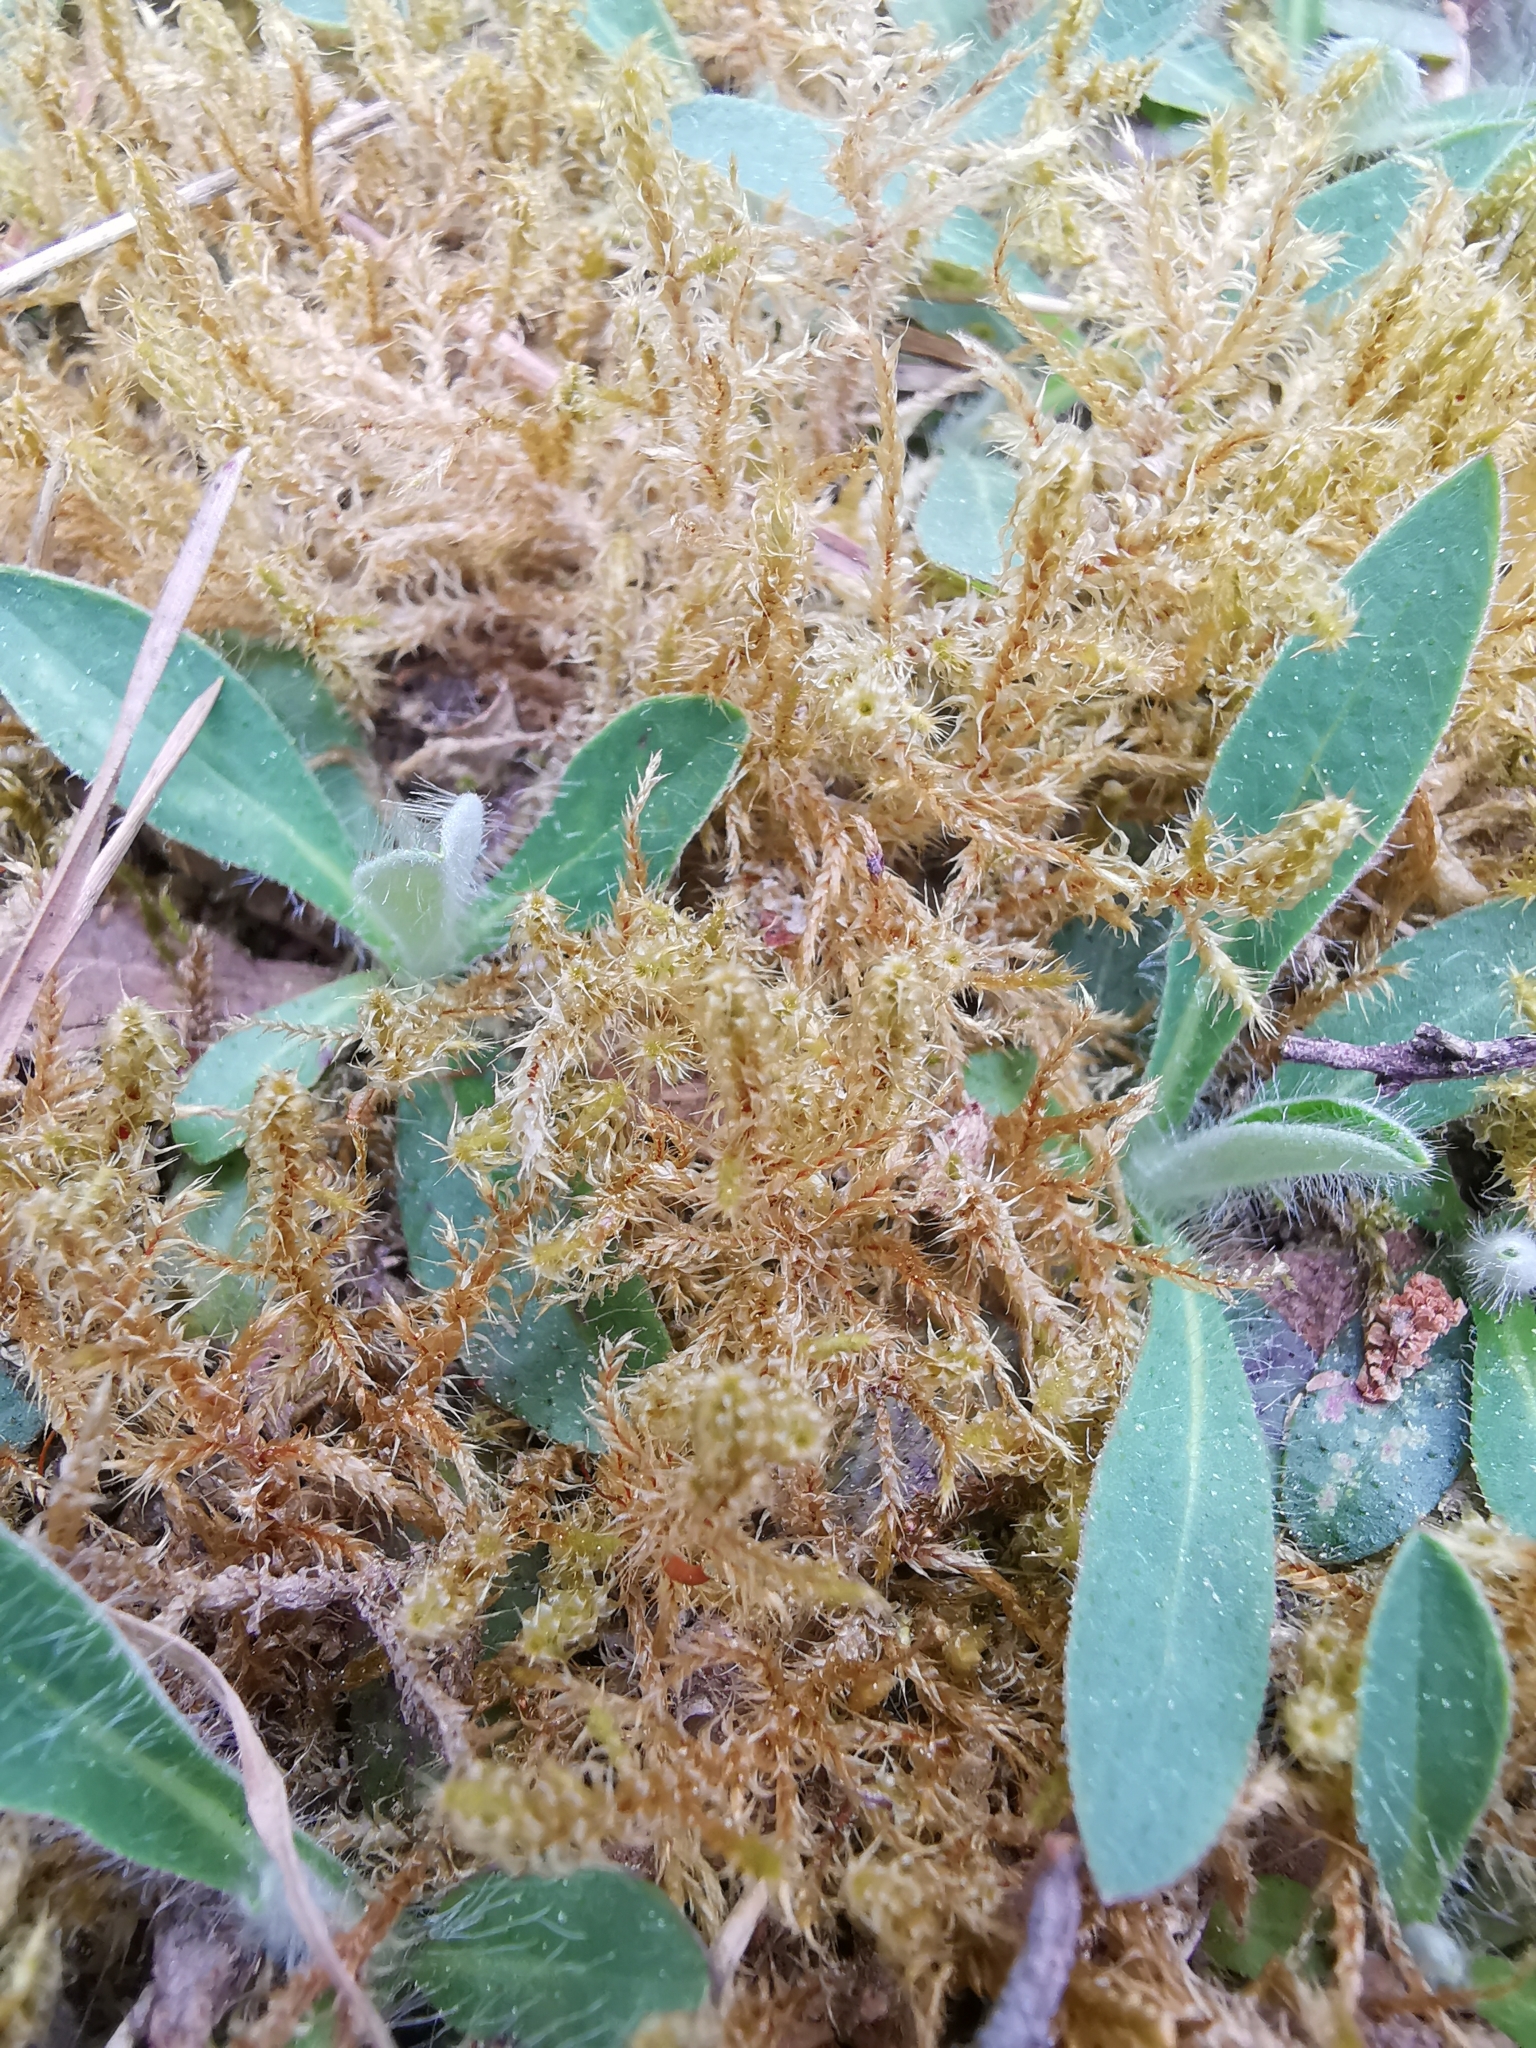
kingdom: Plantae
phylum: Bryophyta
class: Bryopsida
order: Hypnales
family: Hylocomiaceae
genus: Rhytidiadelphus
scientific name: Rhytidiadelphus squarrosus
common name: Springy turf-moss
